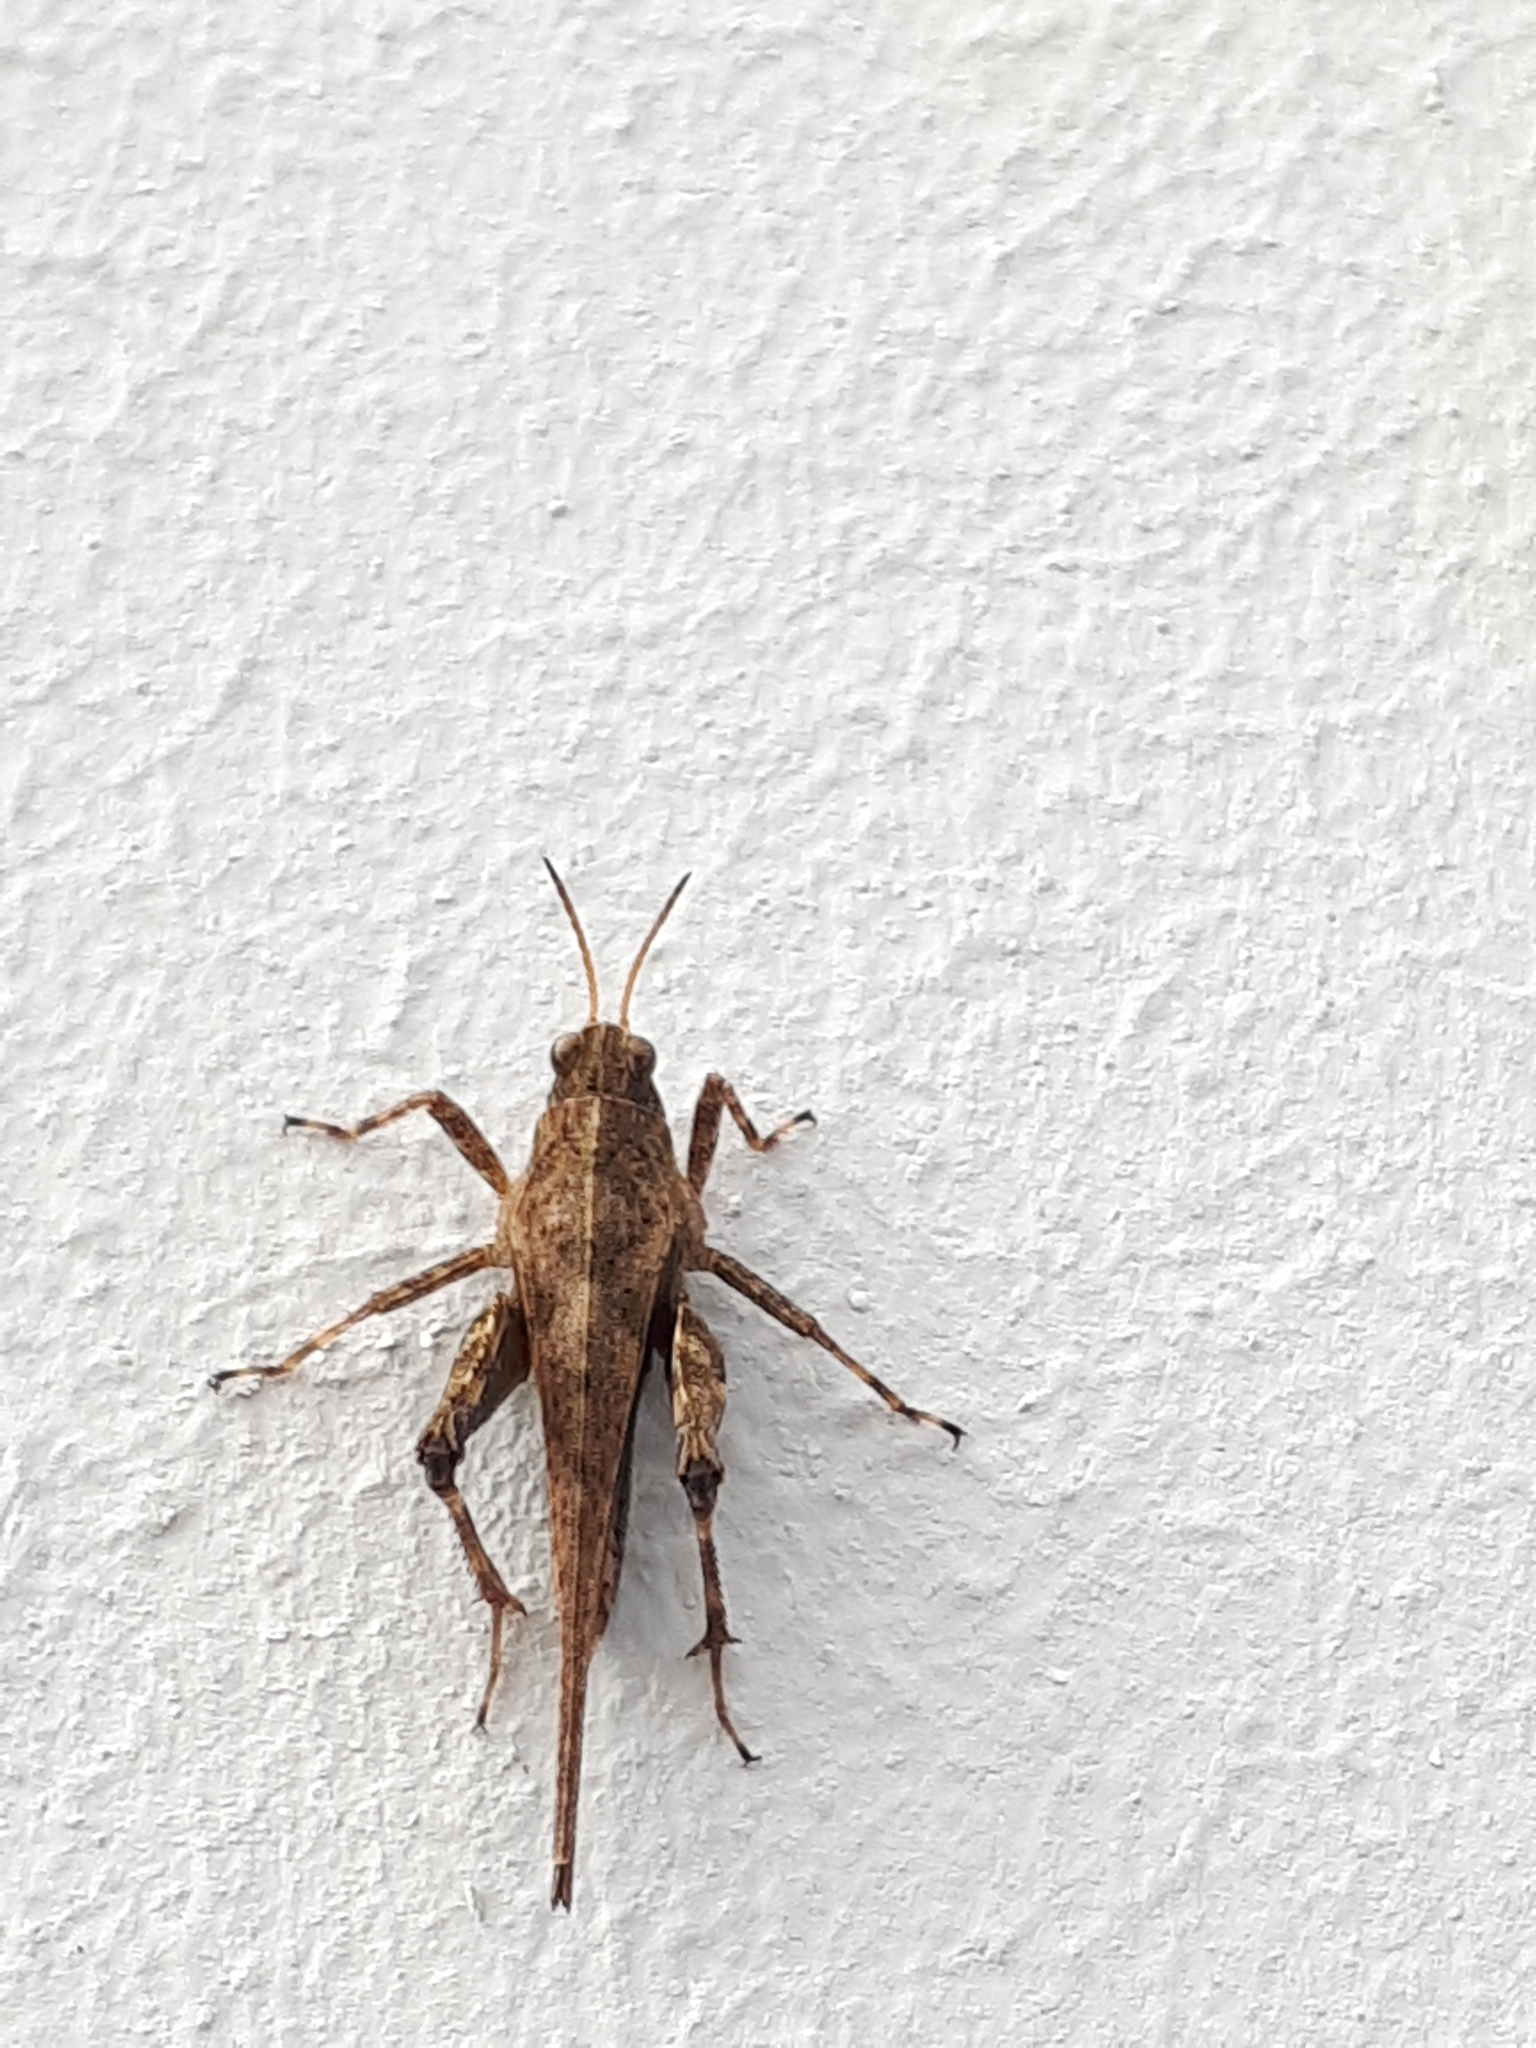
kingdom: Animalia
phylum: Arthropoda
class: Insecta
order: Orthoptera
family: Tetrigidae
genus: Tetrix
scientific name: Tetrix subulata
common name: Slender ground-hopper
